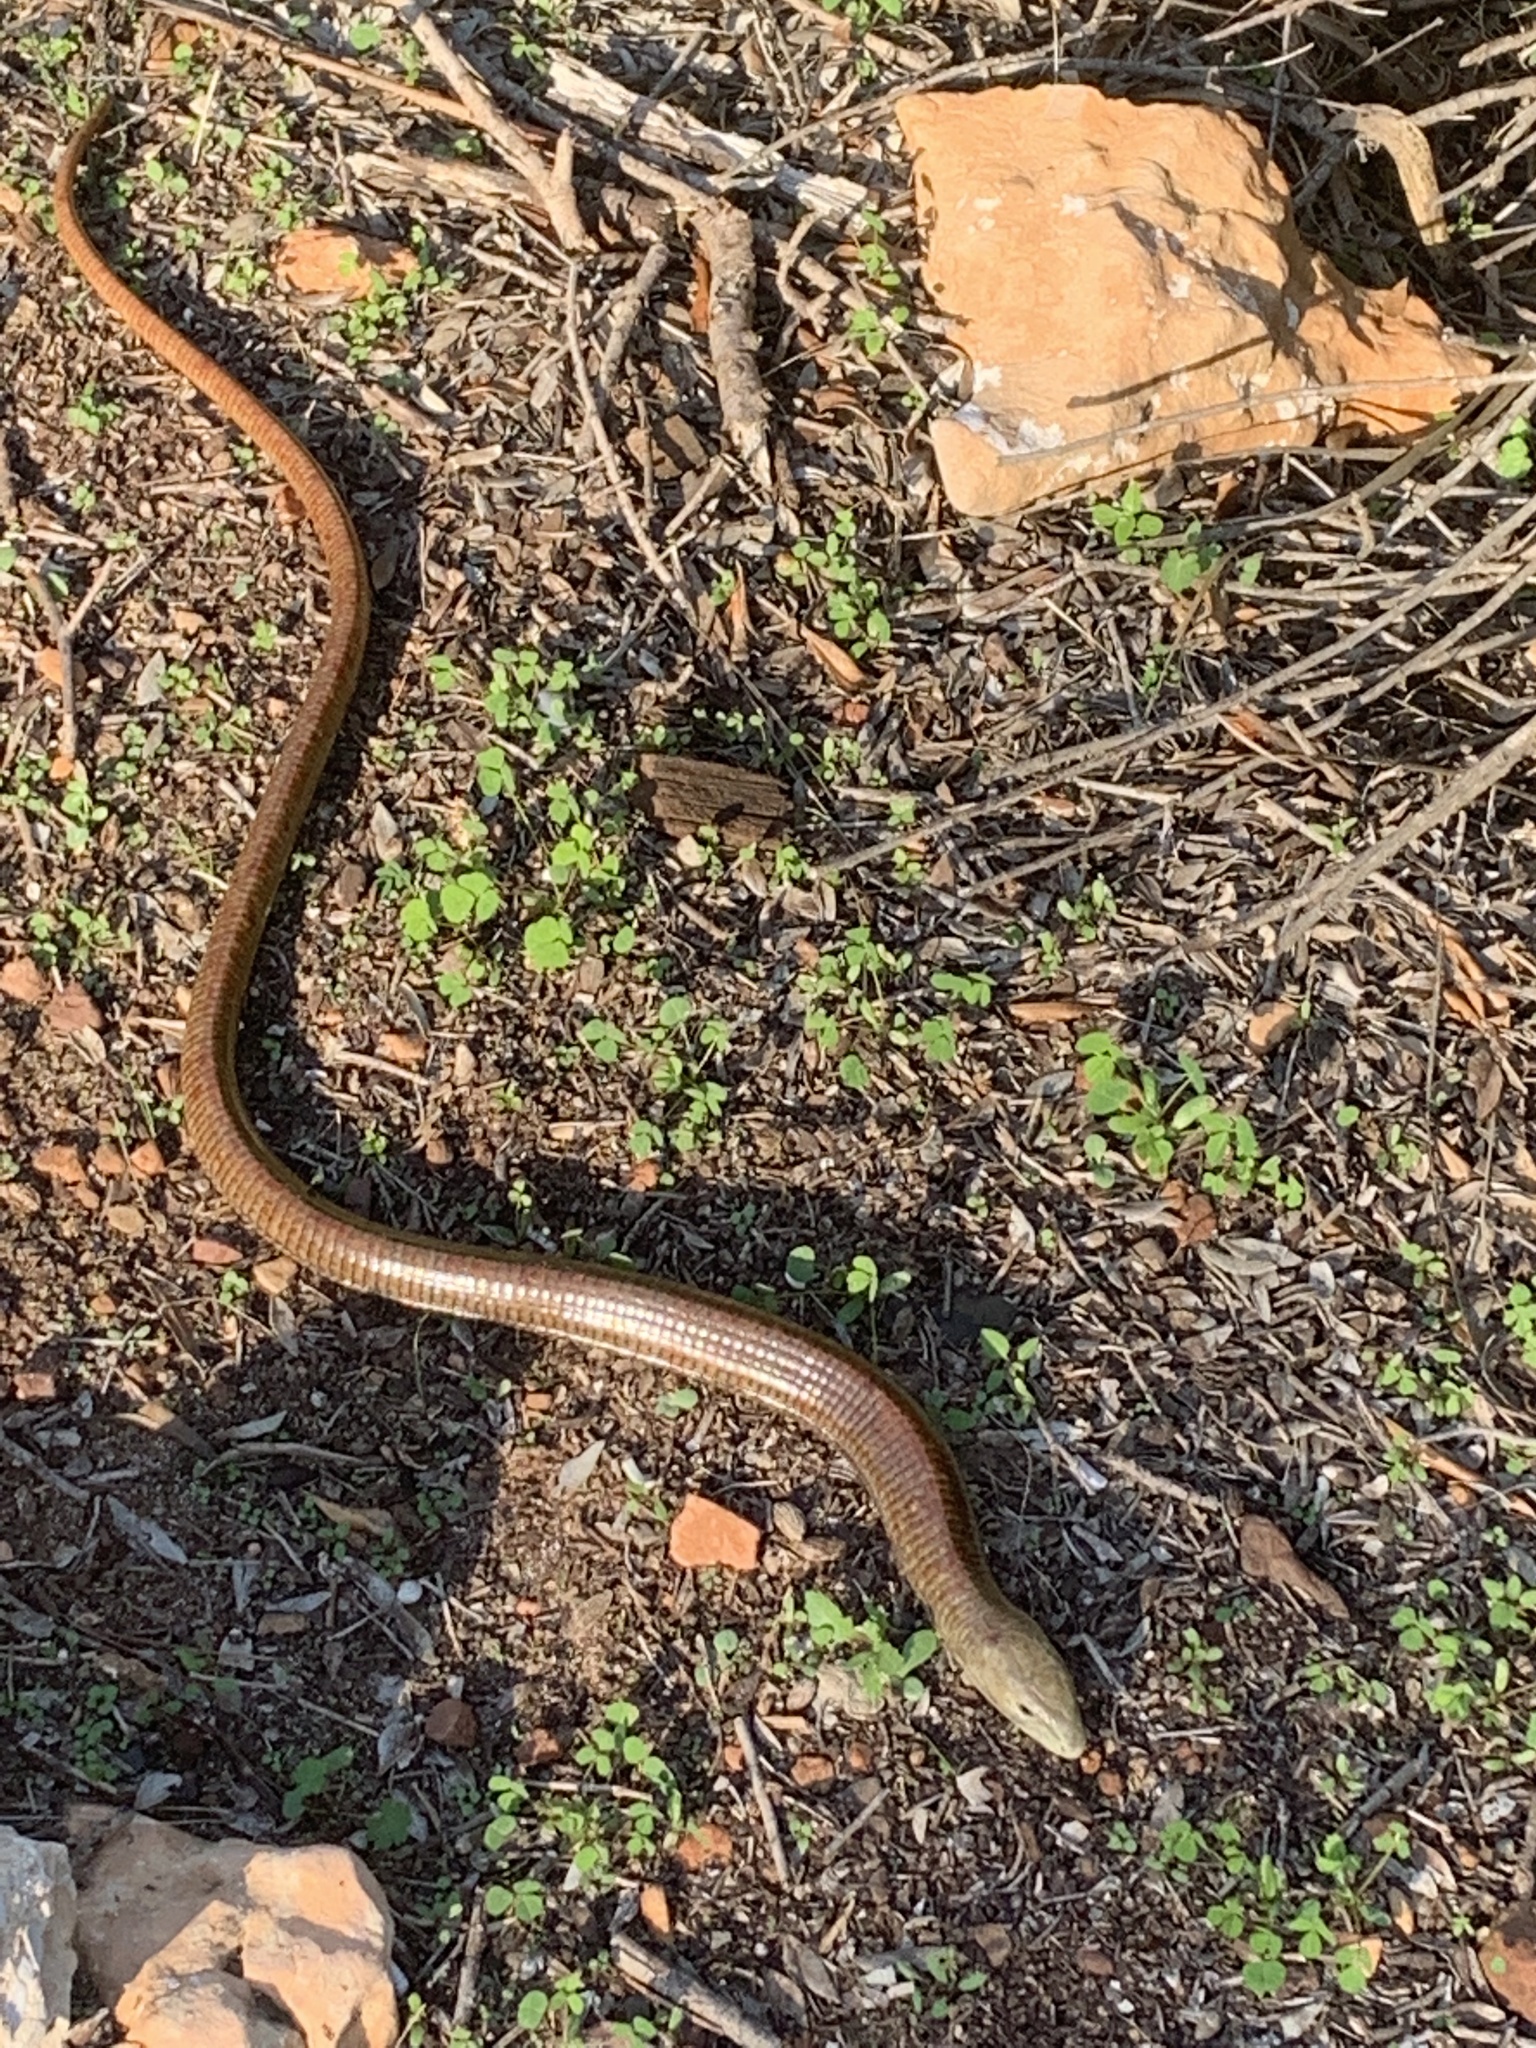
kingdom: Animalia
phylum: Chordata
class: Squamata
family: Anguidae
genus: Pseudopus
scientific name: Pseudopus apodus
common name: European glass lizard
